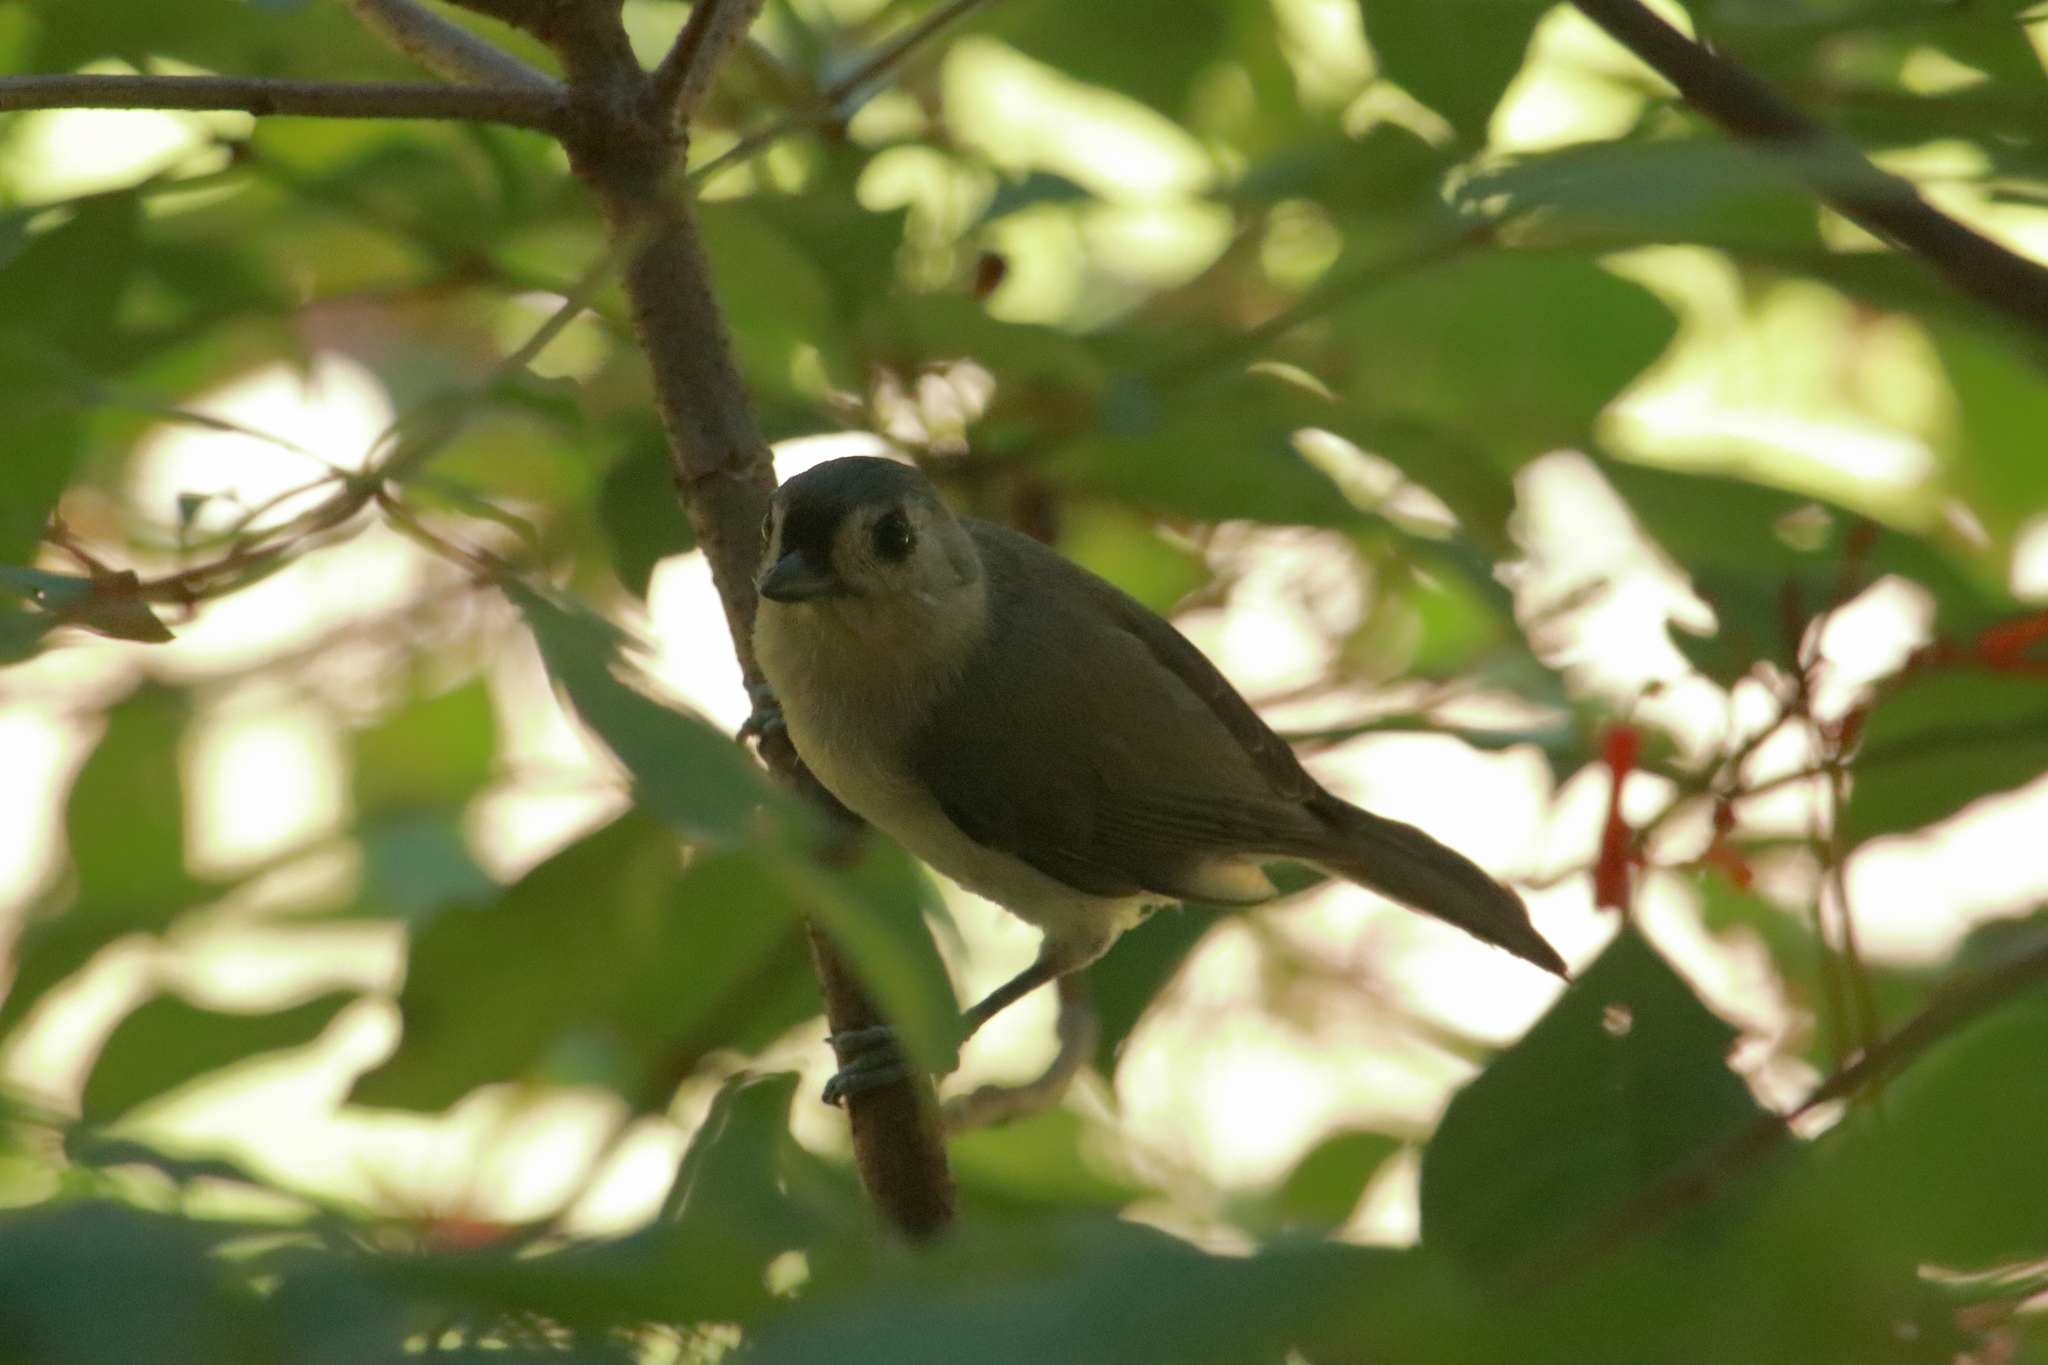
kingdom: Animalia
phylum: Chordata
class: Aves
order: Passeriformes
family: Paridae
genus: Baeolophus
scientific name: Baeolophus bicolor
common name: Tufted titmouse
